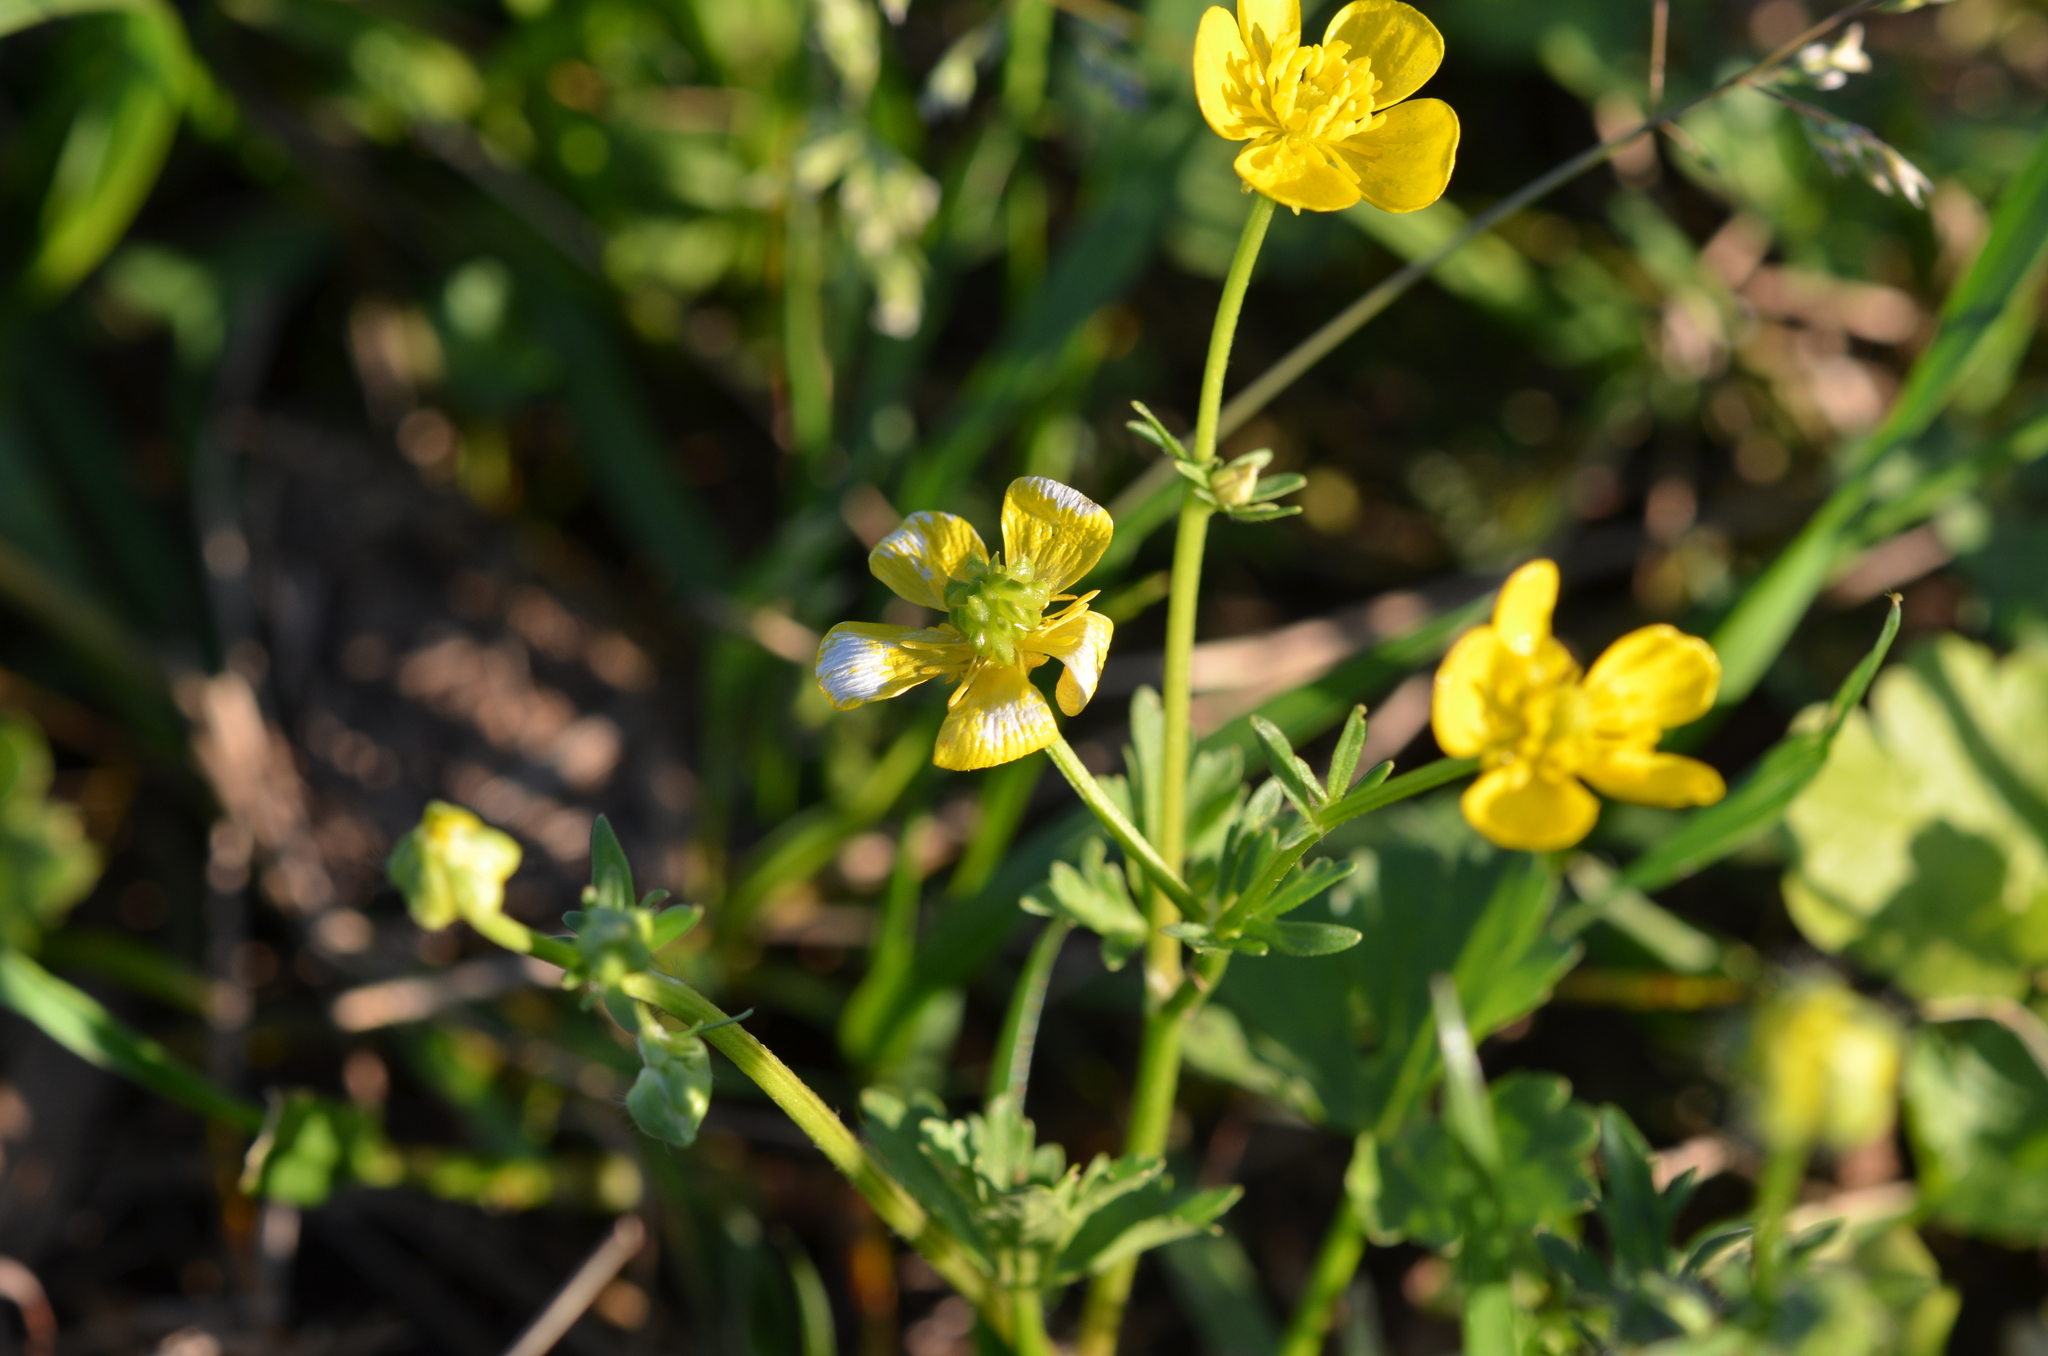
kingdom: Plantae
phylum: Tracheophyta
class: Magnoliopsida
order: Ranunculales
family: Ranunculaceae
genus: Ranunculus
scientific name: Ranunculus sardous
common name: Hairy buttercup
